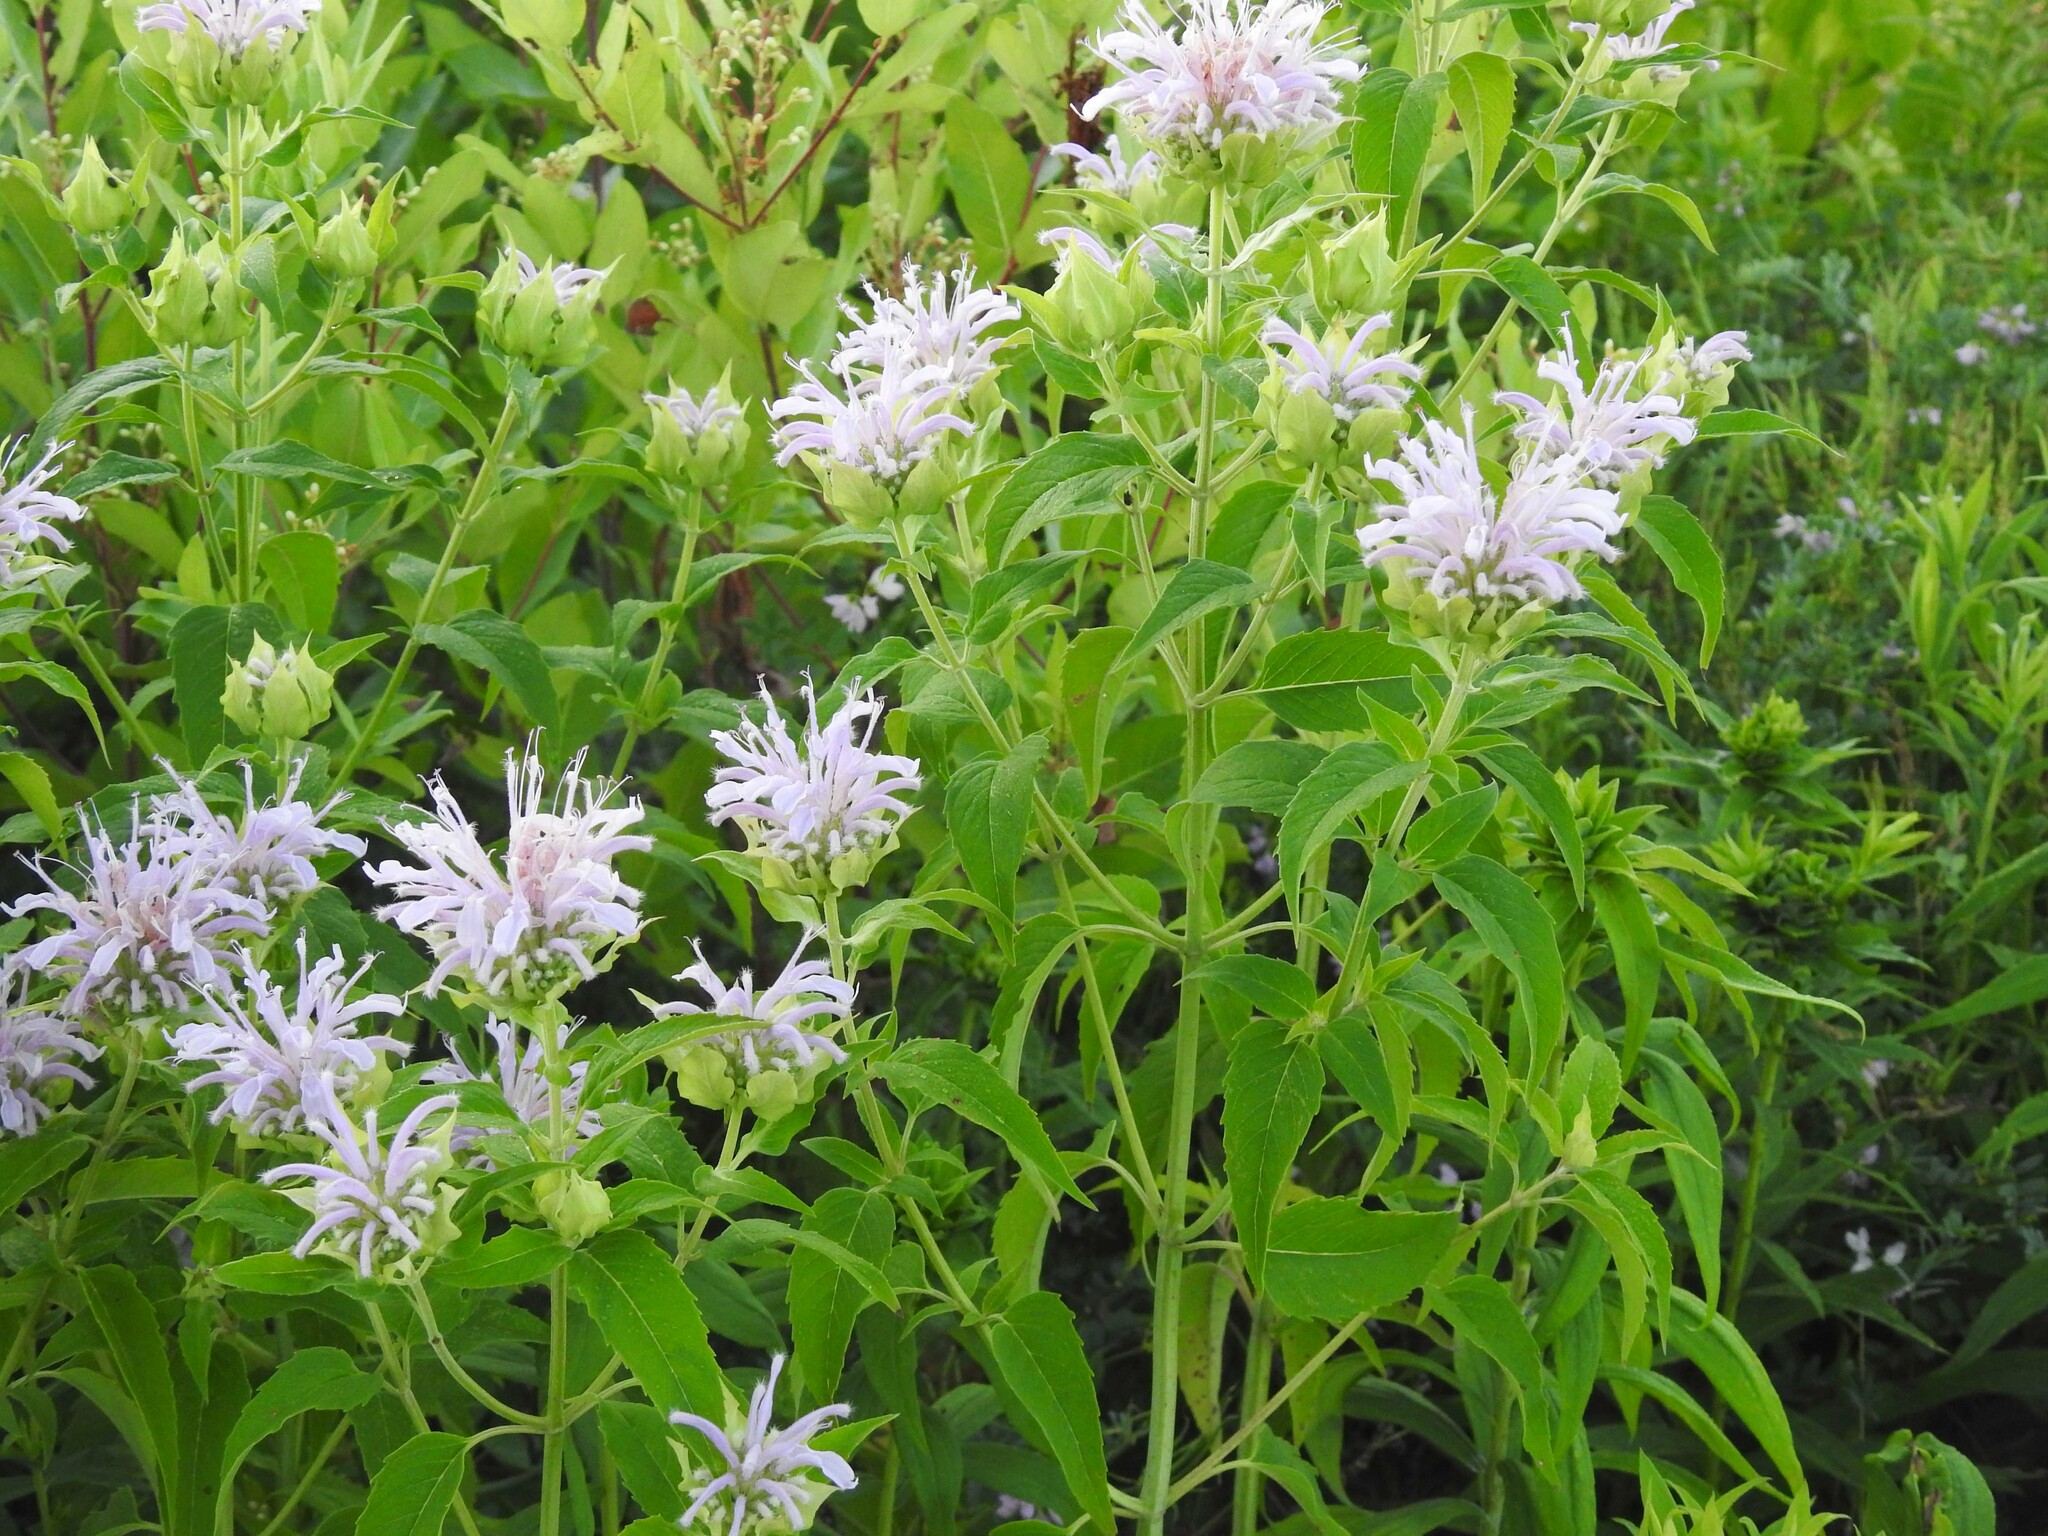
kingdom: Plantae
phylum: Tracheophyta
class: Magnoliopsida
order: Lamiales
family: Lamiaceae
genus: Monarda
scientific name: Monarda fistulosa
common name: Purple beebalm
